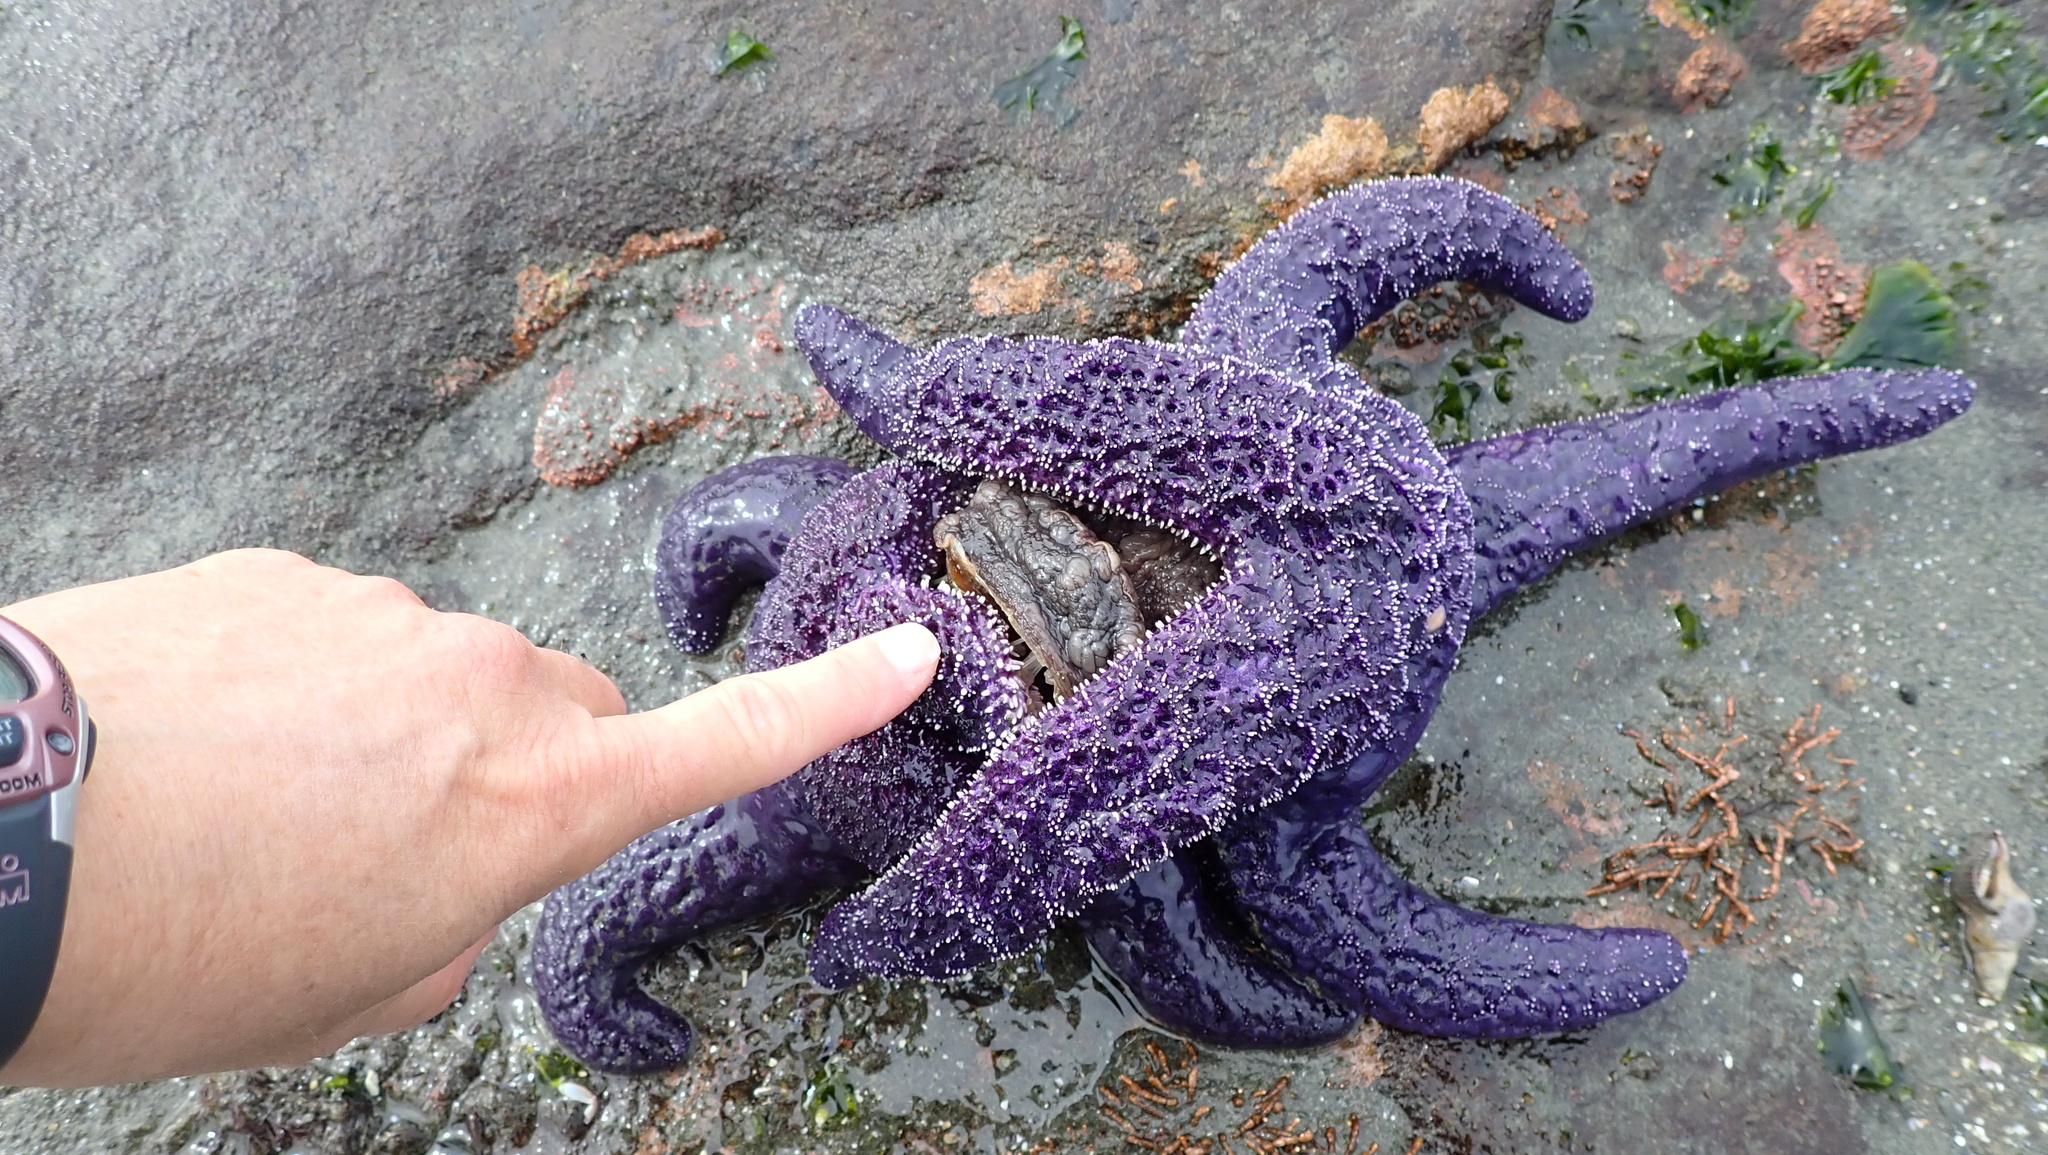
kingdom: Animalia
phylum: Echinodermata
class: Asteroidea
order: Forcipulatida
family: Asteriidae
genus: Pisaster
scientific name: Pisaster ochraceus
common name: Ochre stars
